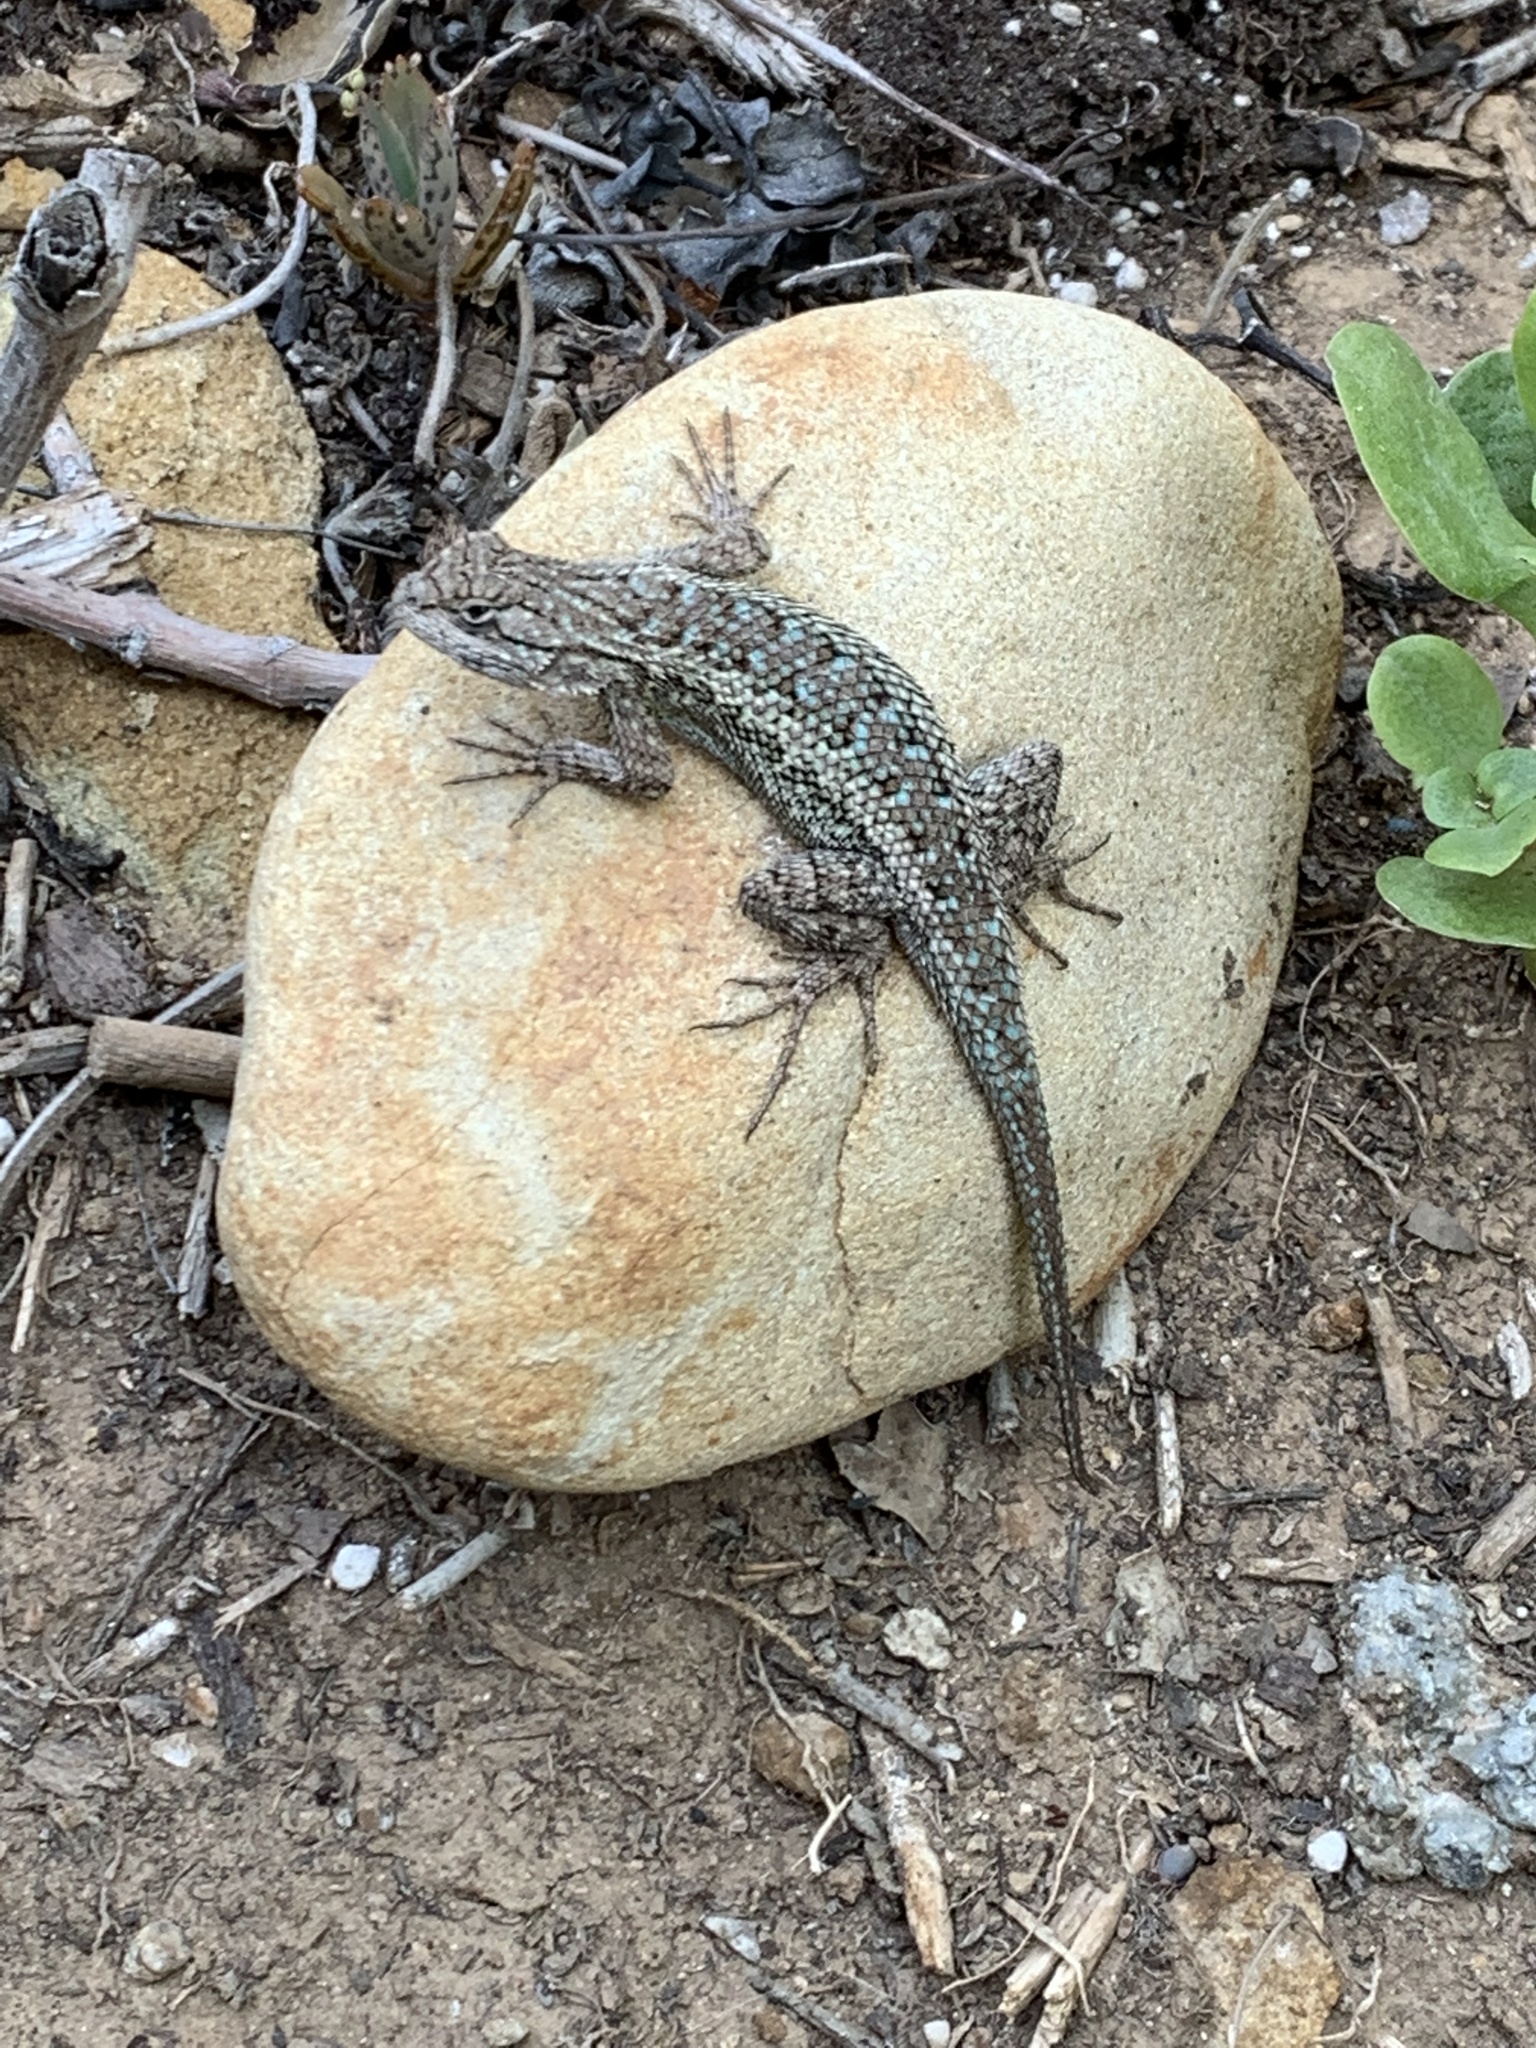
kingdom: Animalia
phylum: Chordata
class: Squamata
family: Phrynosomatidae
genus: Sceloporus
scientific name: Sceloporus occidentalis
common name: Western fence lizard
